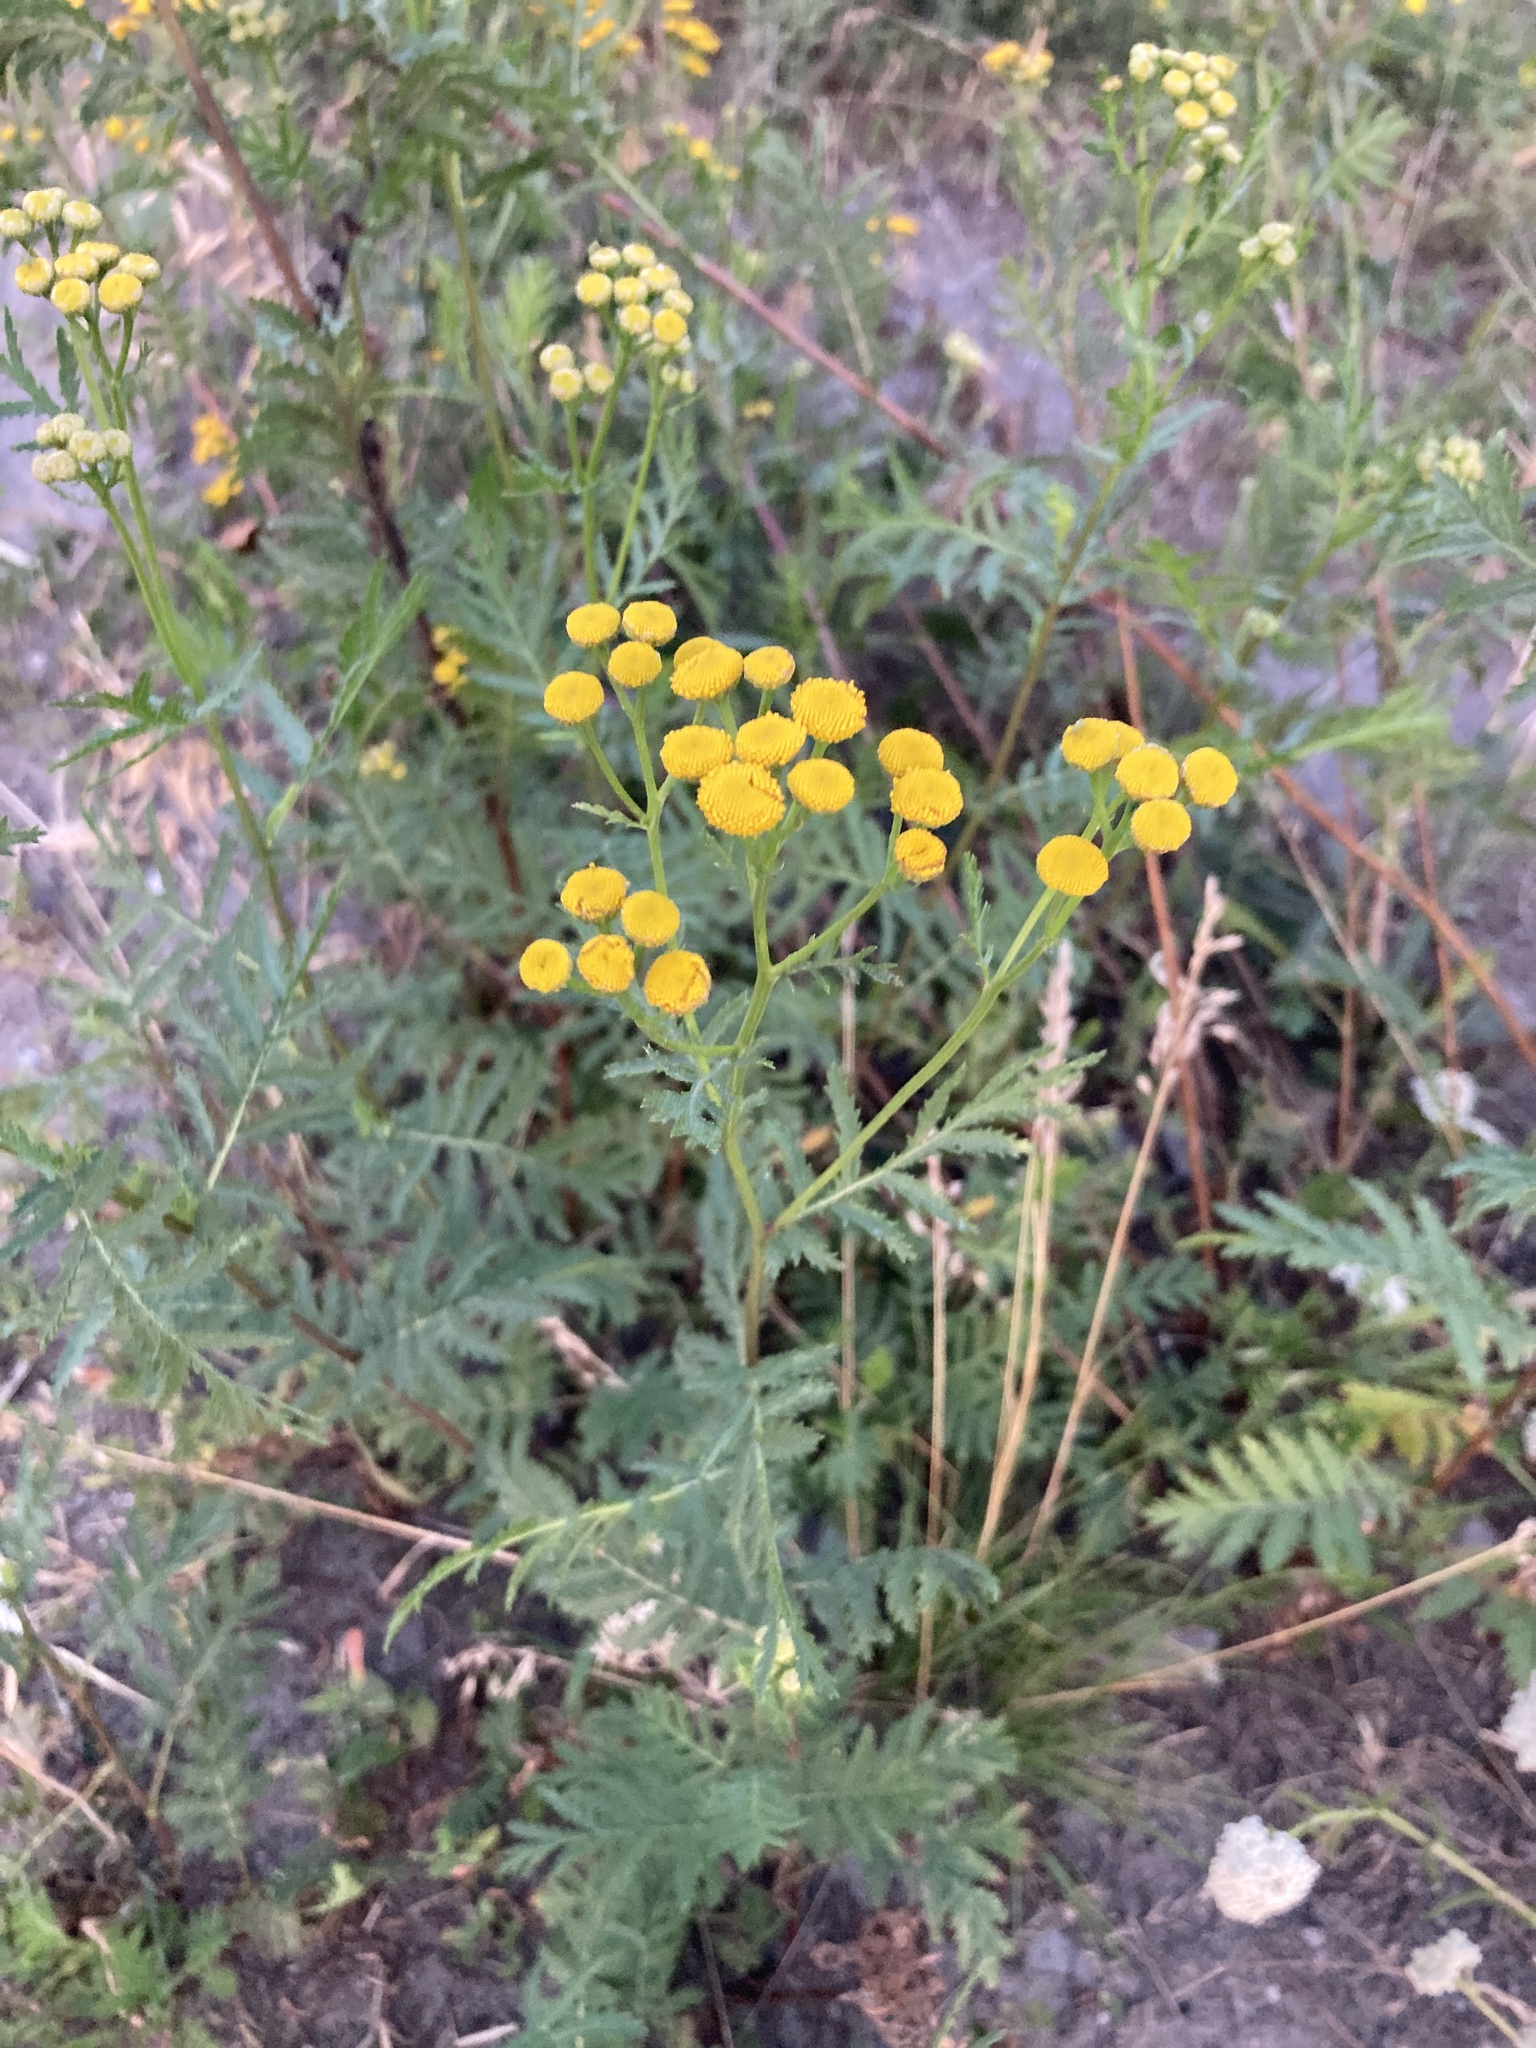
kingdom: Plantae
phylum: Tracheophyta
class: Magnoliopsida
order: Asterales
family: Asteraceae
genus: Tanacetum
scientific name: Tanacetum vulgare
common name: Common tansy
